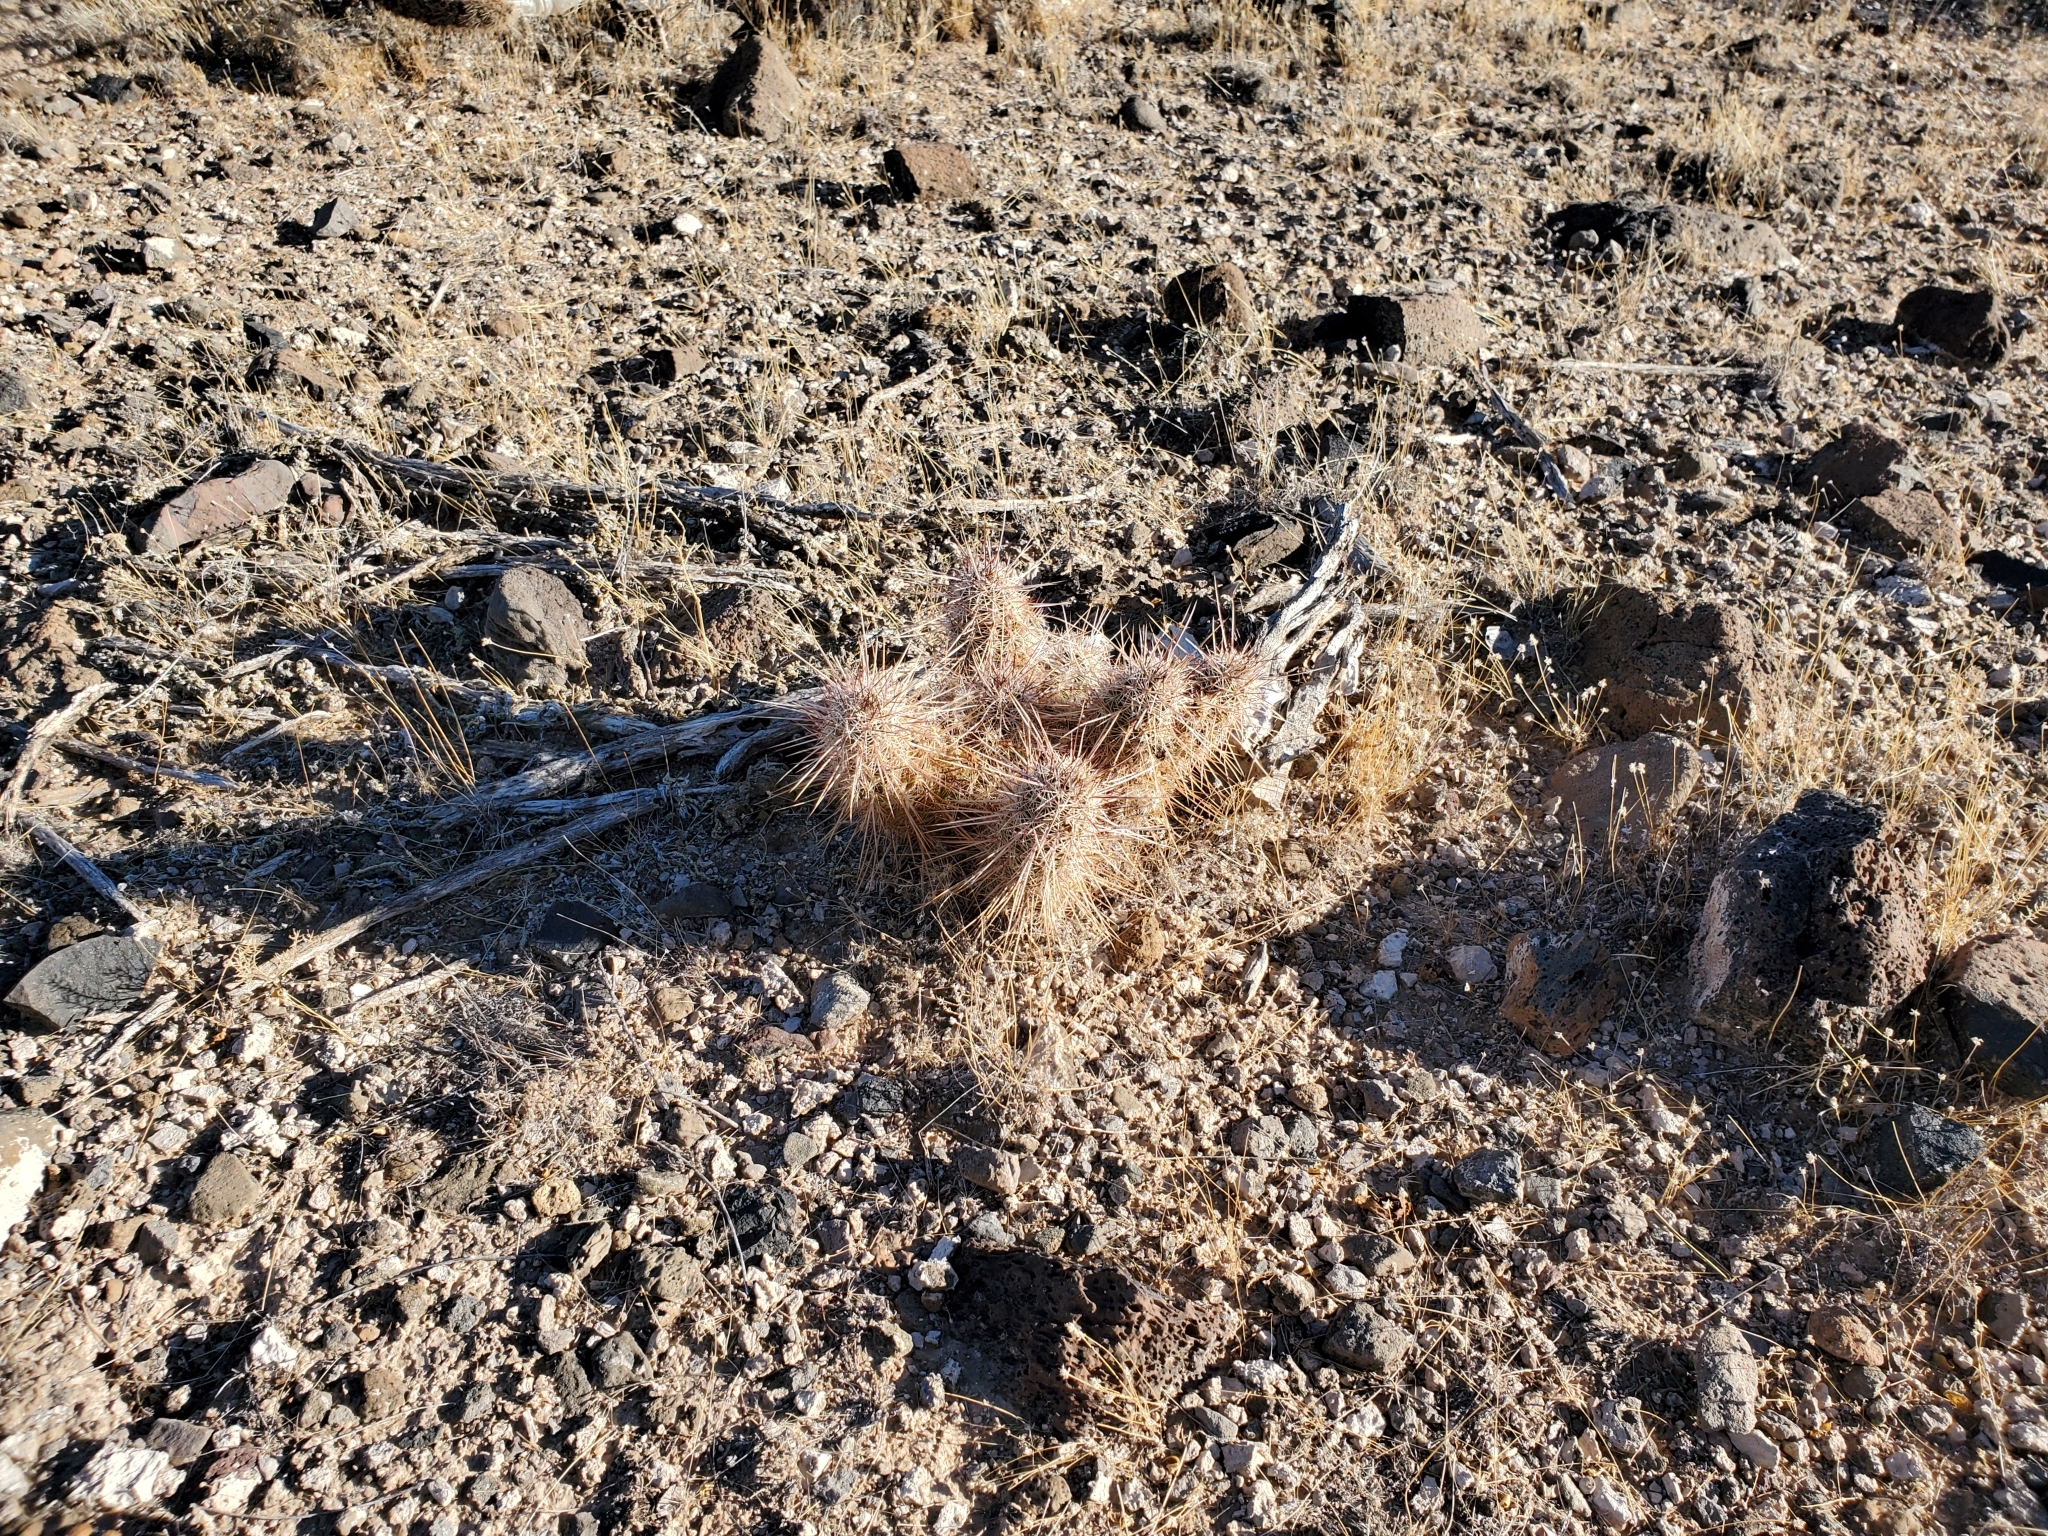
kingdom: Plantae
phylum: Tracheophyta
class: Magnoliopsida
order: Caryophyllales
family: Cactaceae
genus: Echinocereus
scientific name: Echinocereus engelmannii
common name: Engelmann's hedgehog cactus
